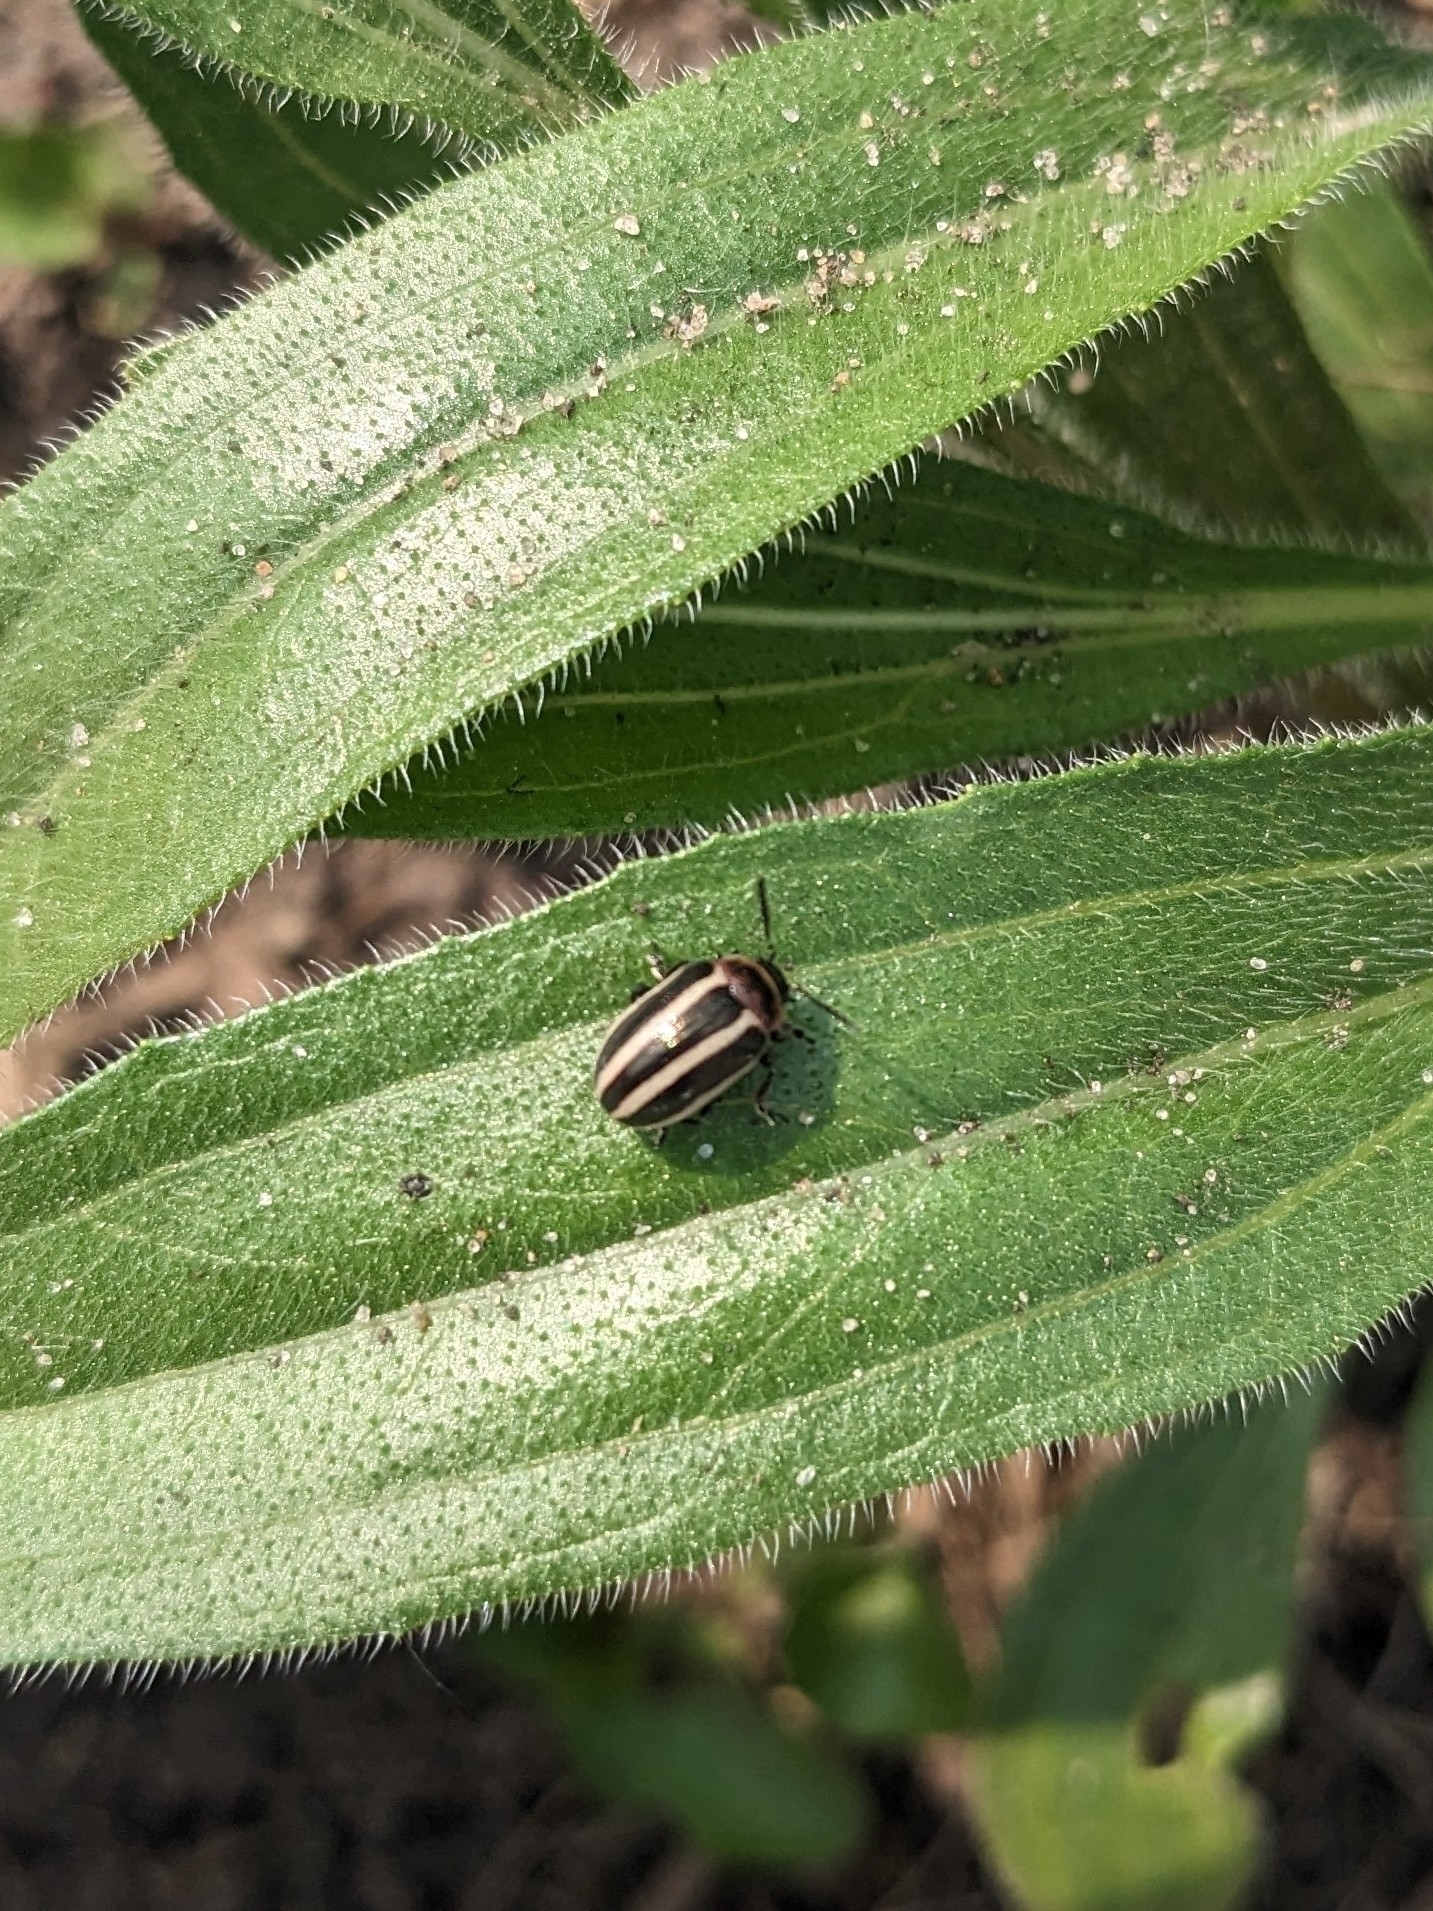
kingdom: Animalia
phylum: Arthropoda
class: Insecta
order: Coleoptera
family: Chrysomelidae
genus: Calligrapha
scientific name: Calligrapha californica
